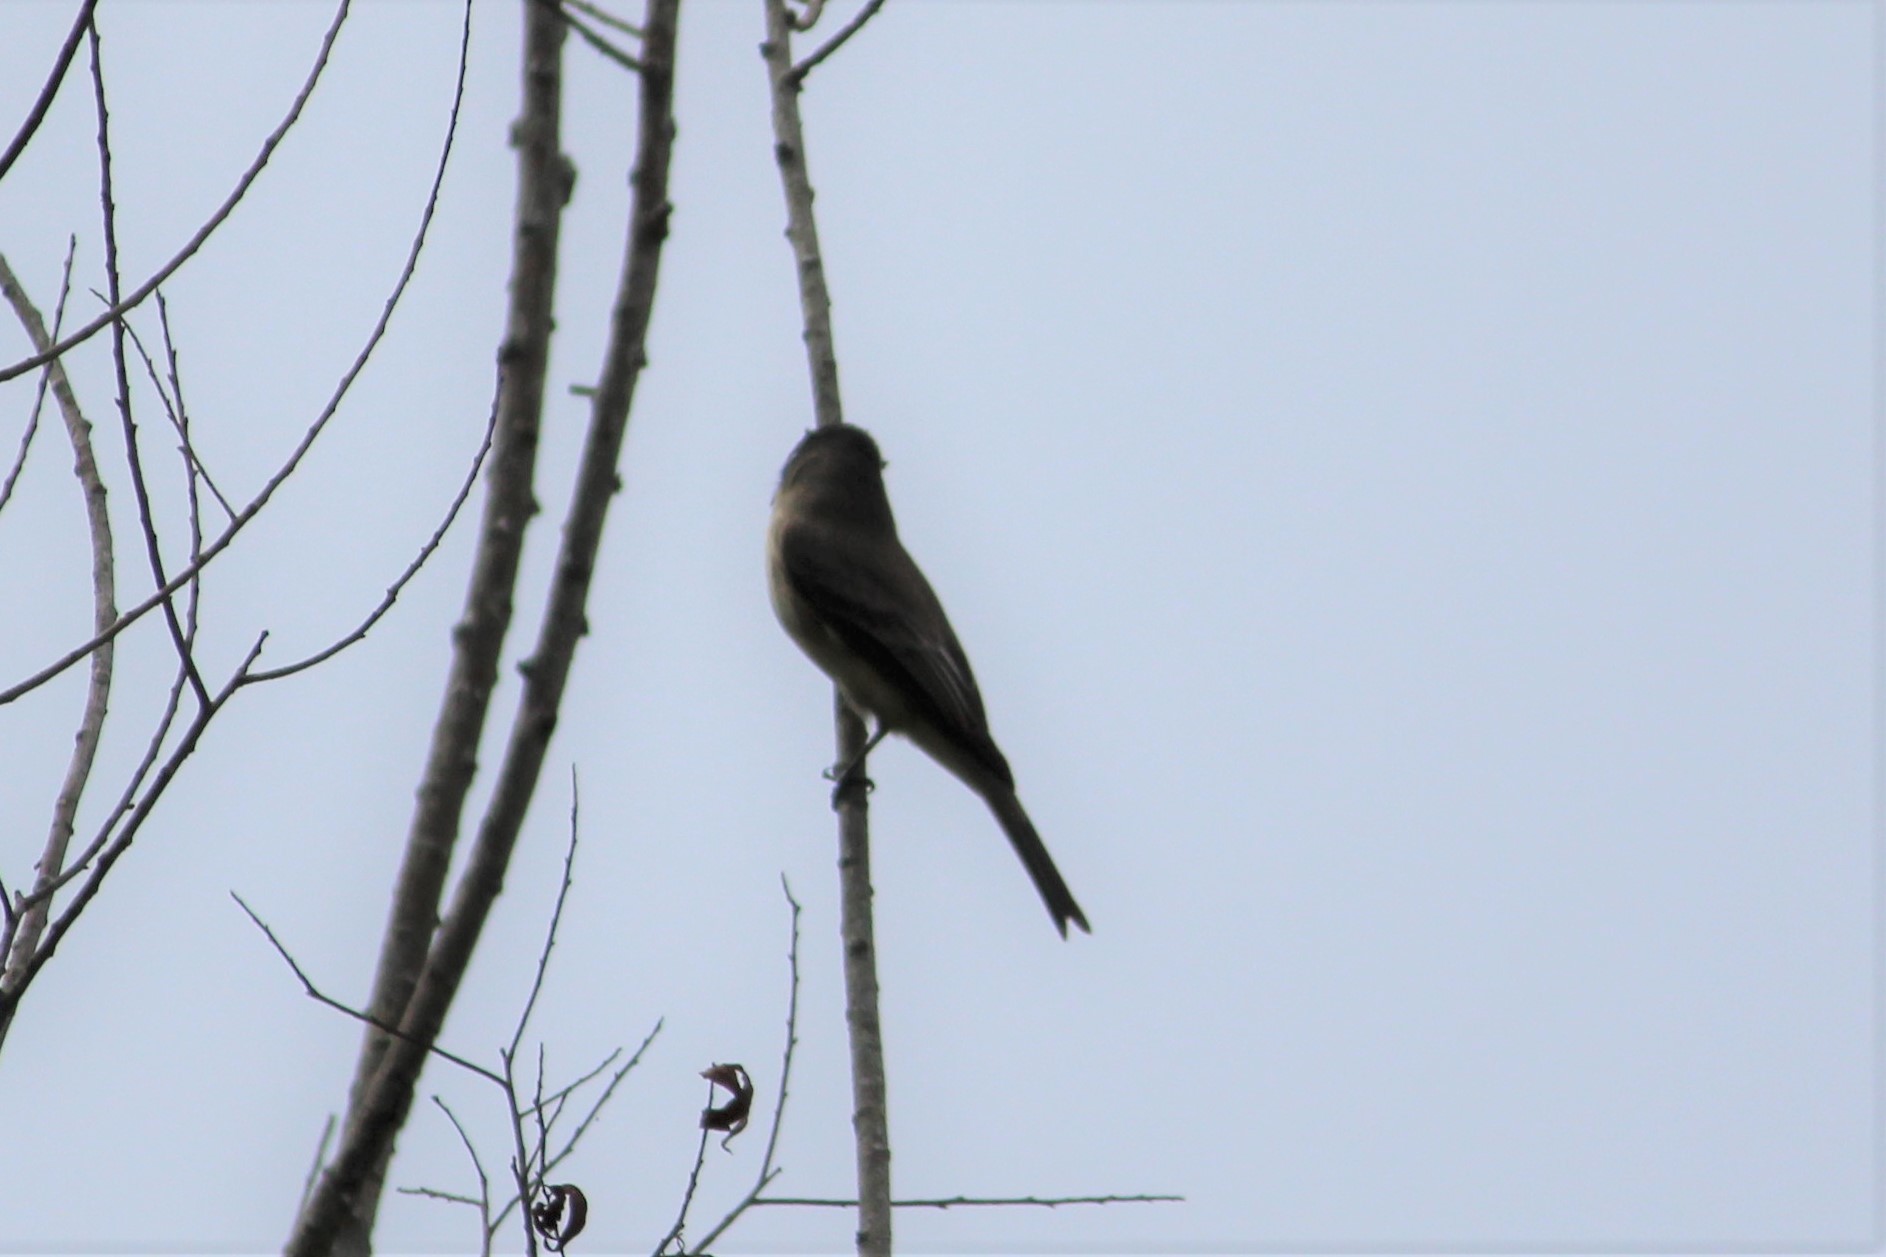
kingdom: Animalia
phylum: Chordata
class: Aves
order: Passeriformes
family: Tyrannidae
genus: Sayornis
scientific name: Sayornis phoebe
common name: Eastern phoebe
